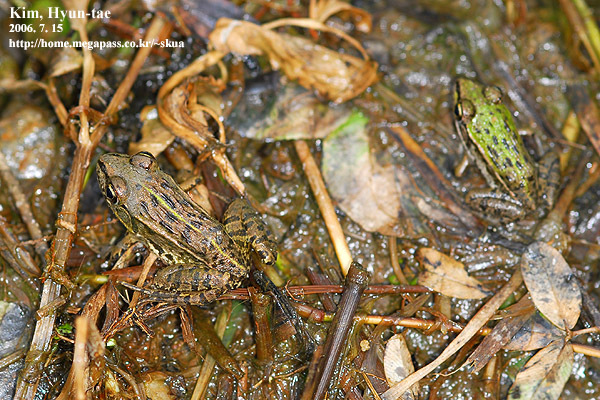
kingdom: Animalia
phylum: Chordata
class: Amphibia
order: Anura
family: Ranidae
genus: Pelophylax
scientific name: Pelophylax nigromaculatus
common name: Black-spotted pond frog
